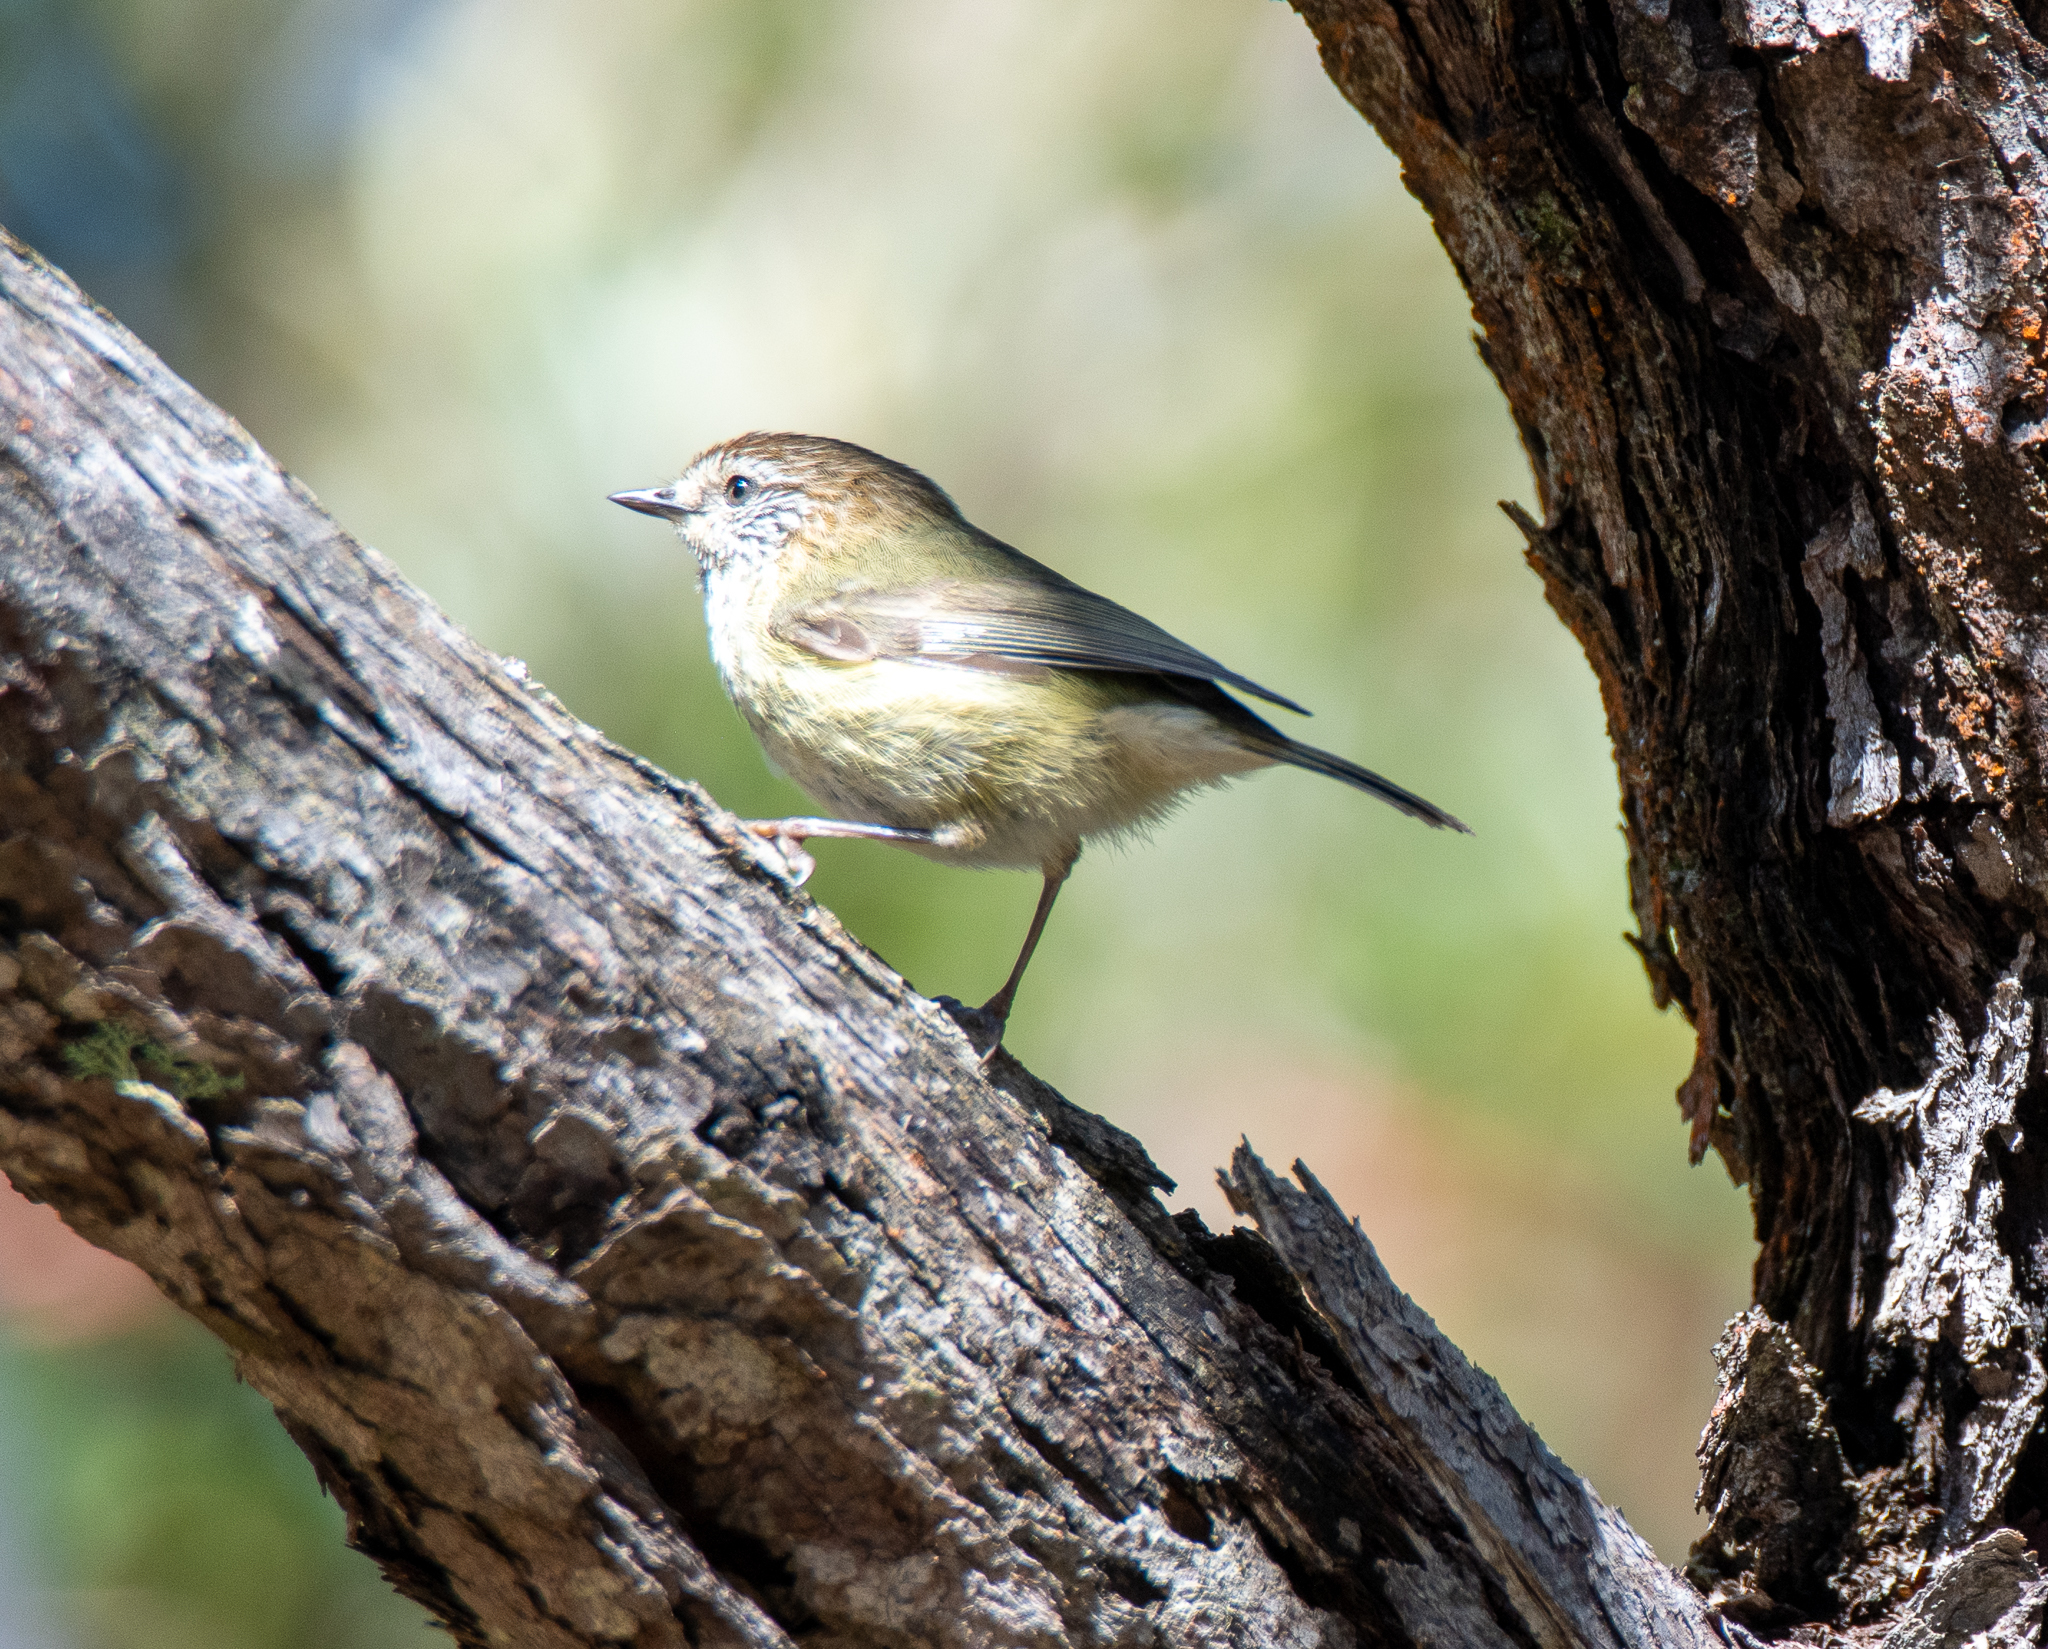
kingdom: Animalia
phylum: Chordata
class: Aves
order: Passeriformes
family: Acanthizidae
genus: Acanthiza
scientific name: Acanthiza lineata
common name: Striated thornbill
